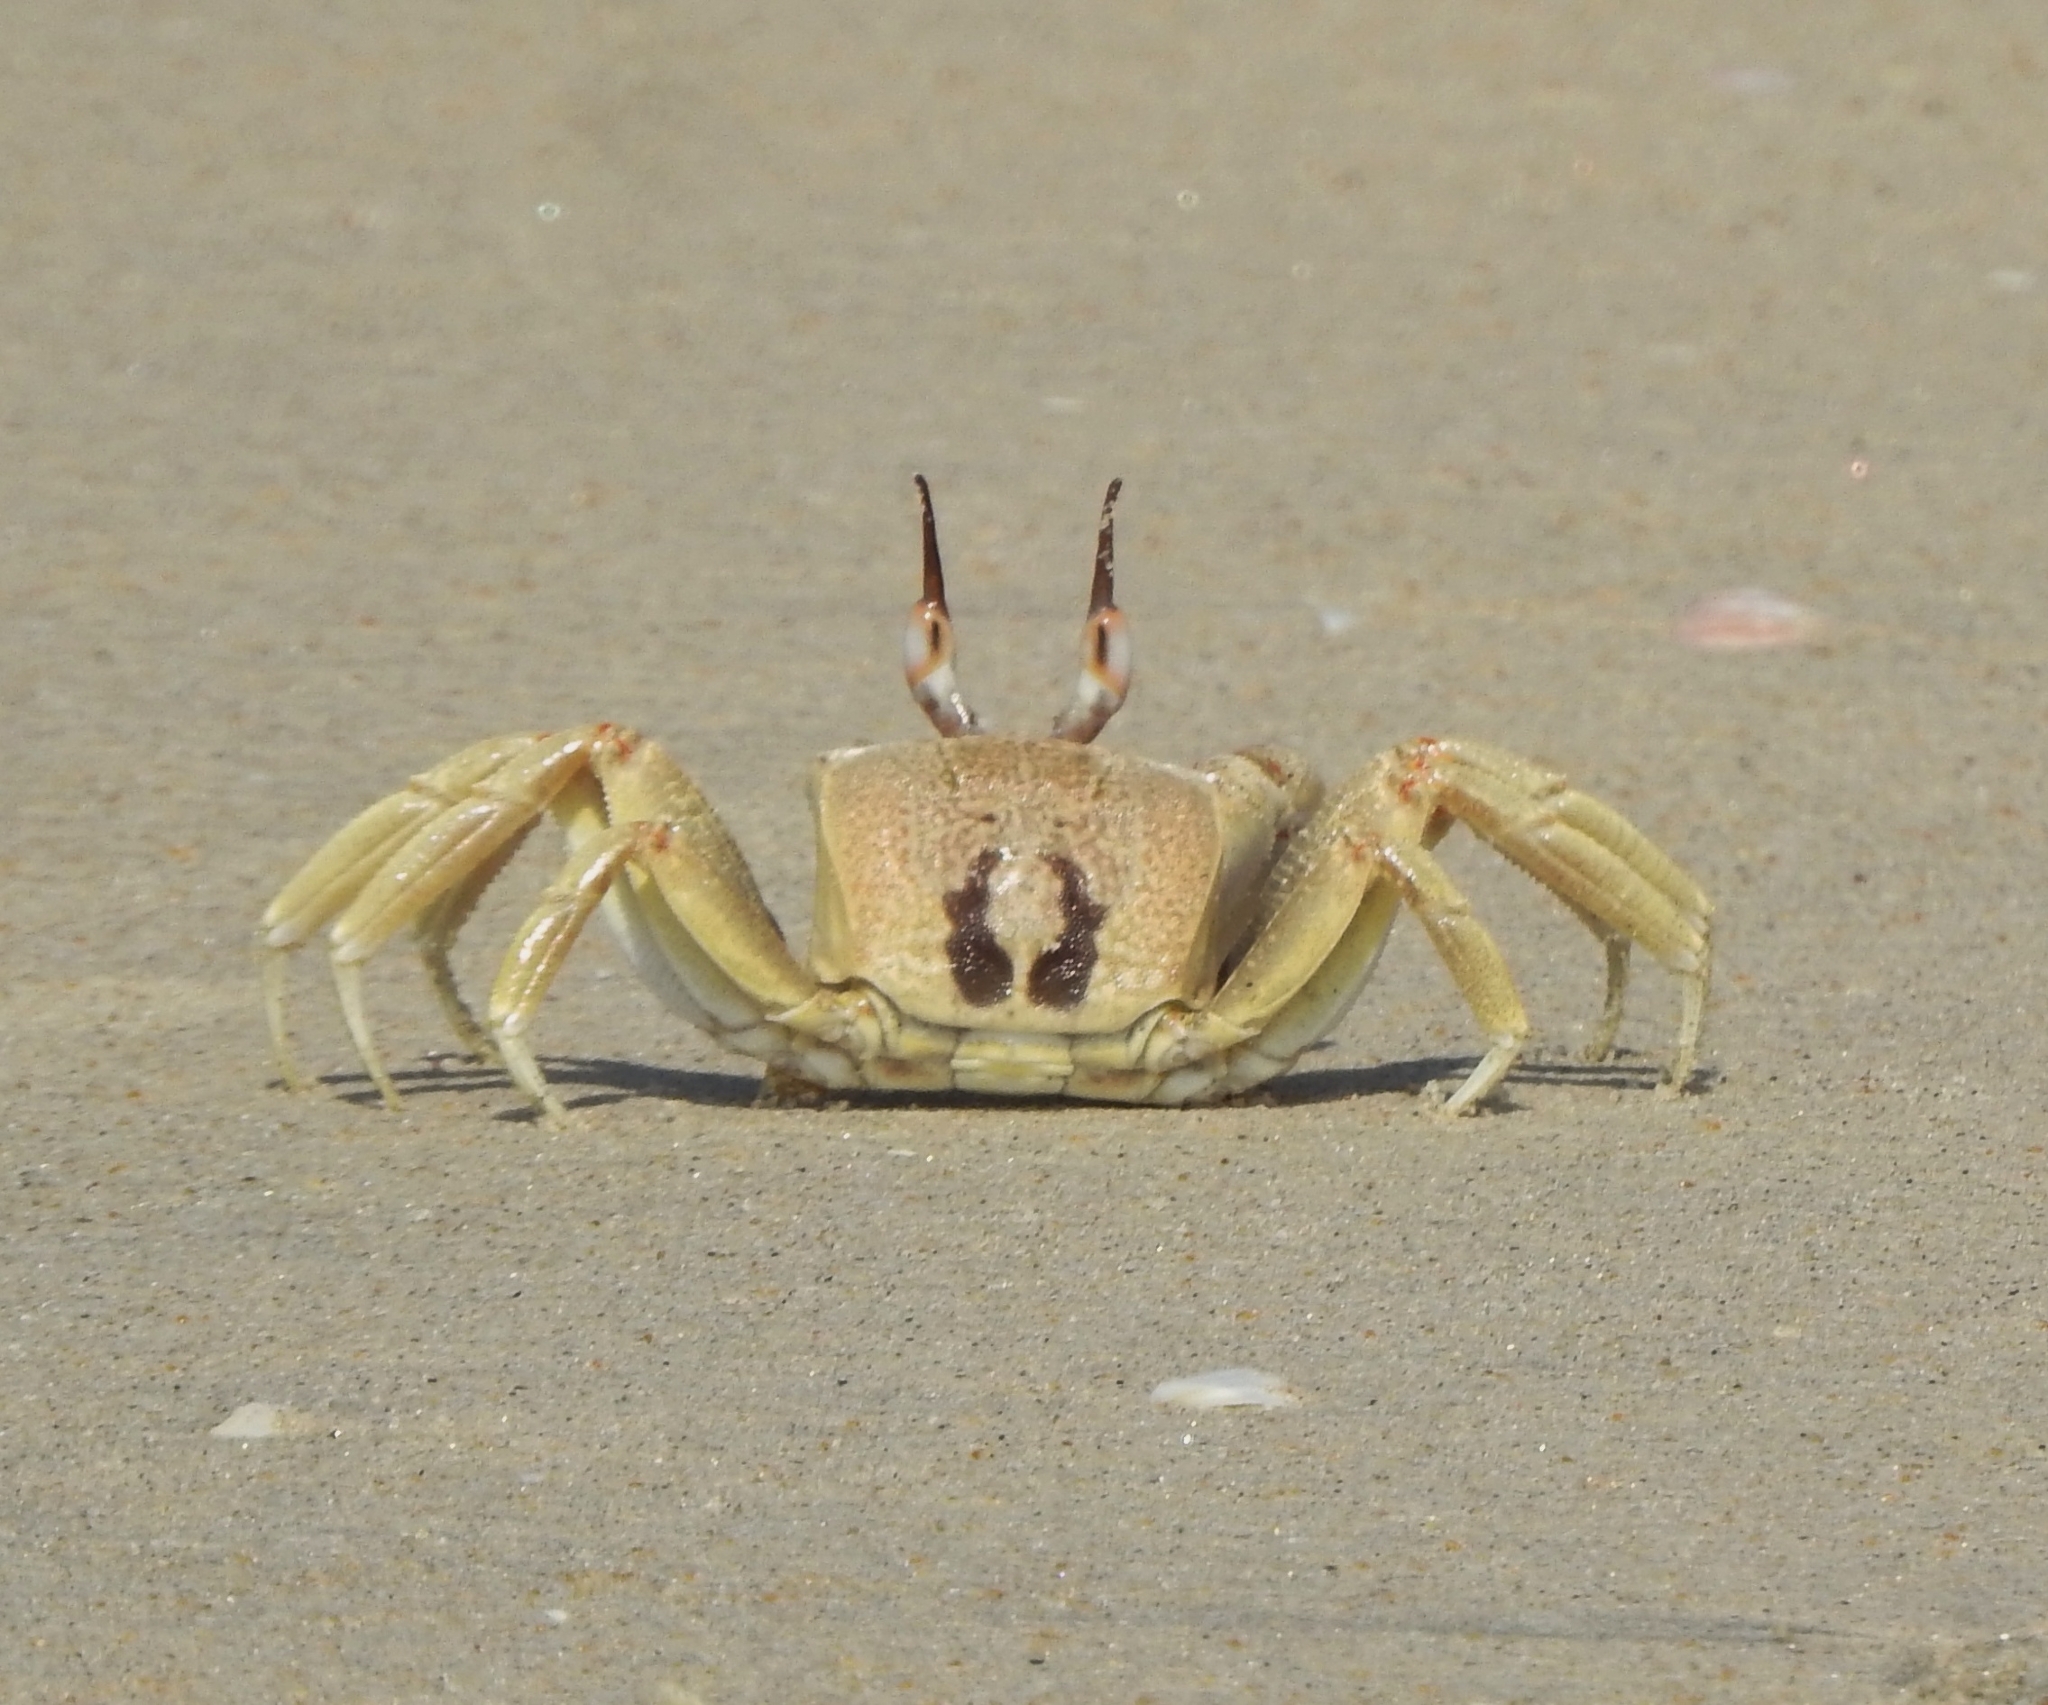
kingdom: Animalia
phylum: Arthropoda
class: Malacostraca
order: Decapoda
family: Ocypodidae
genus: Ocypode
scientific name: Ocypode ceratophthalmus
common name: Indo-pacific ghost crab
